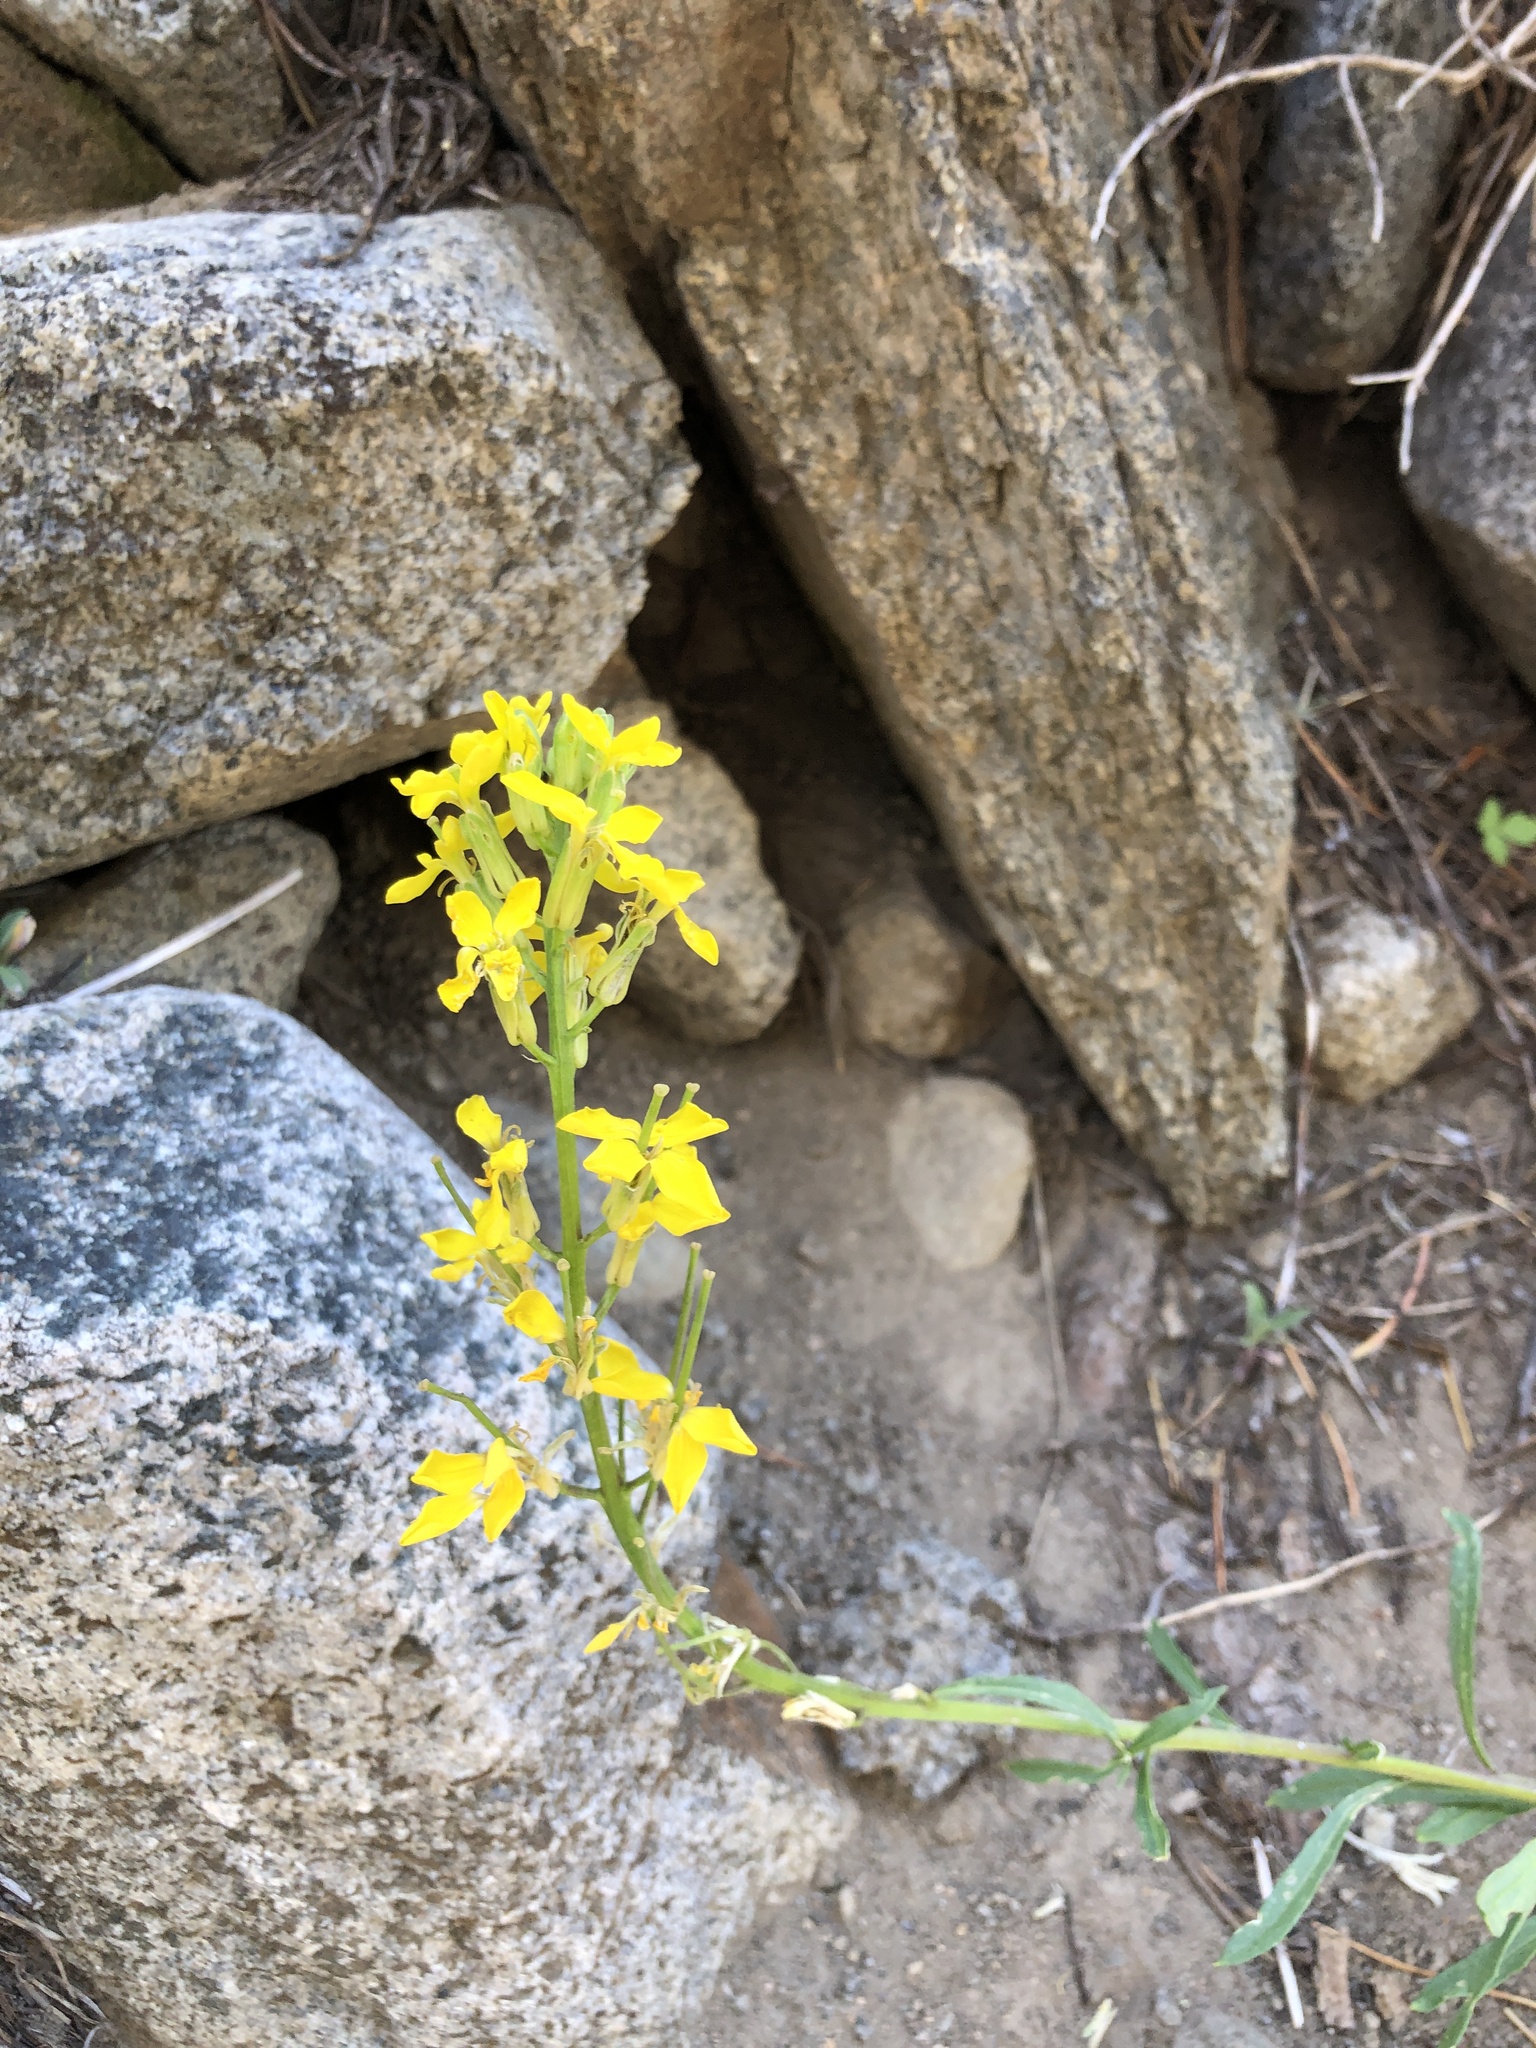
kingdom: Plantae
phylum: Tracheophyta
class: Magnoliopsida
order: Brassicales
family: Brassicaceae
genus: Erysimum
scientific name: Erysimum capitatum
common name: Western wallflower
